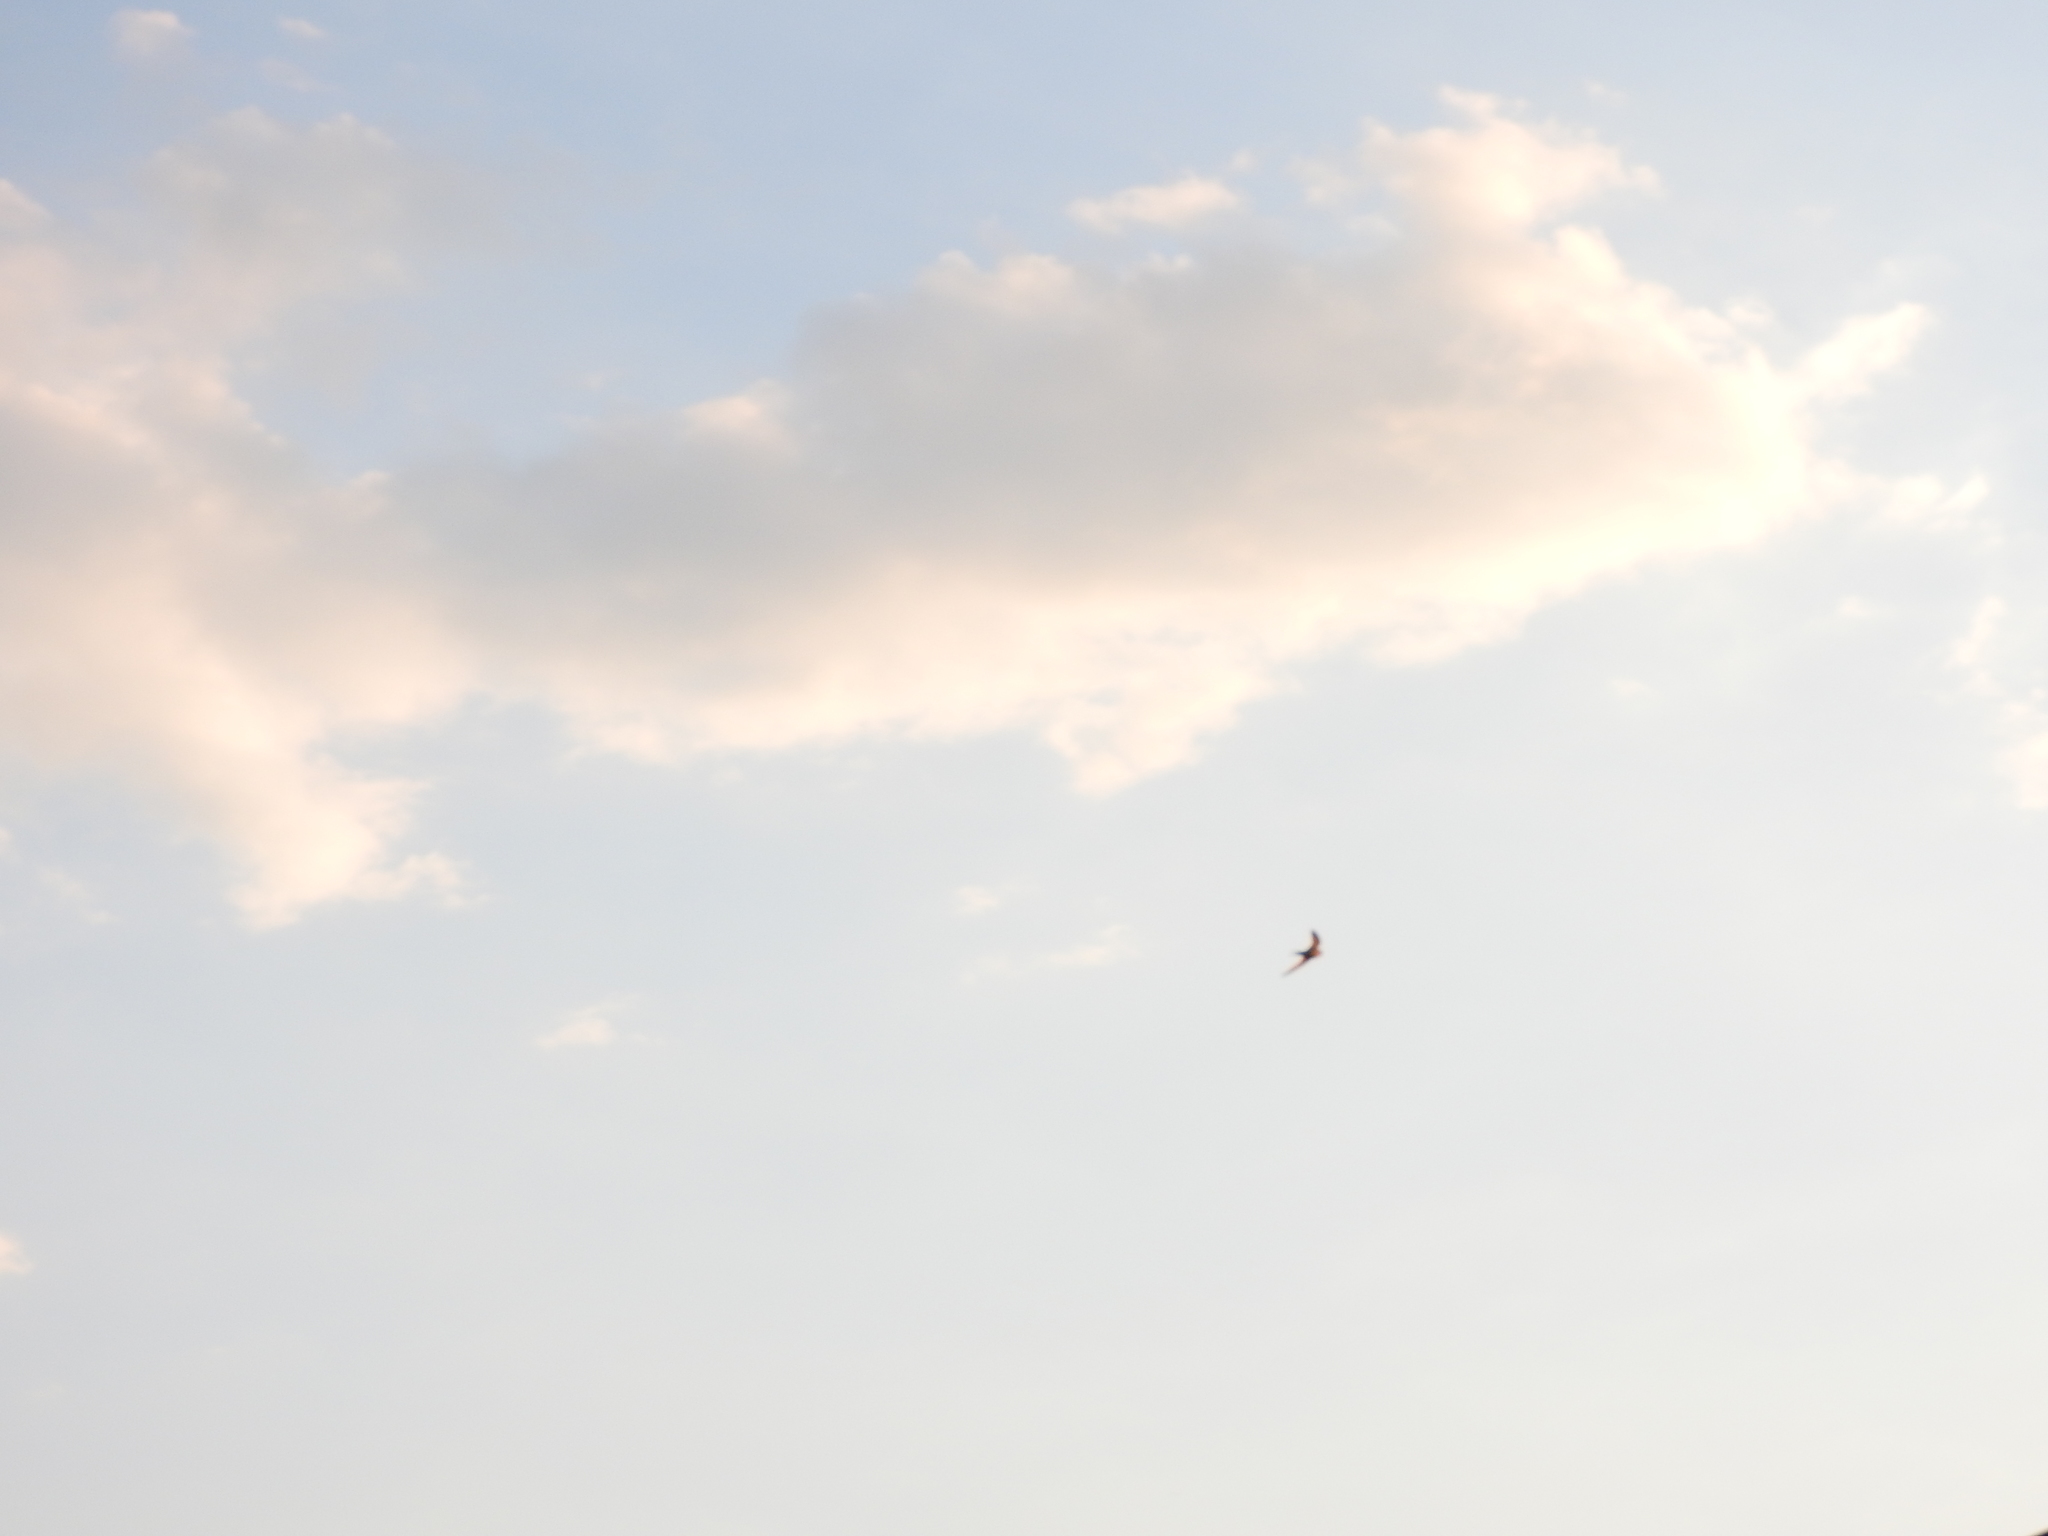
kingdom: Animalia
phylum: Chordata
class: Aves
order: Passeriformes
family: Hirundinidae
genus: Hirundo
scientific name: Hirundo rustica
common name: Barn swallow
